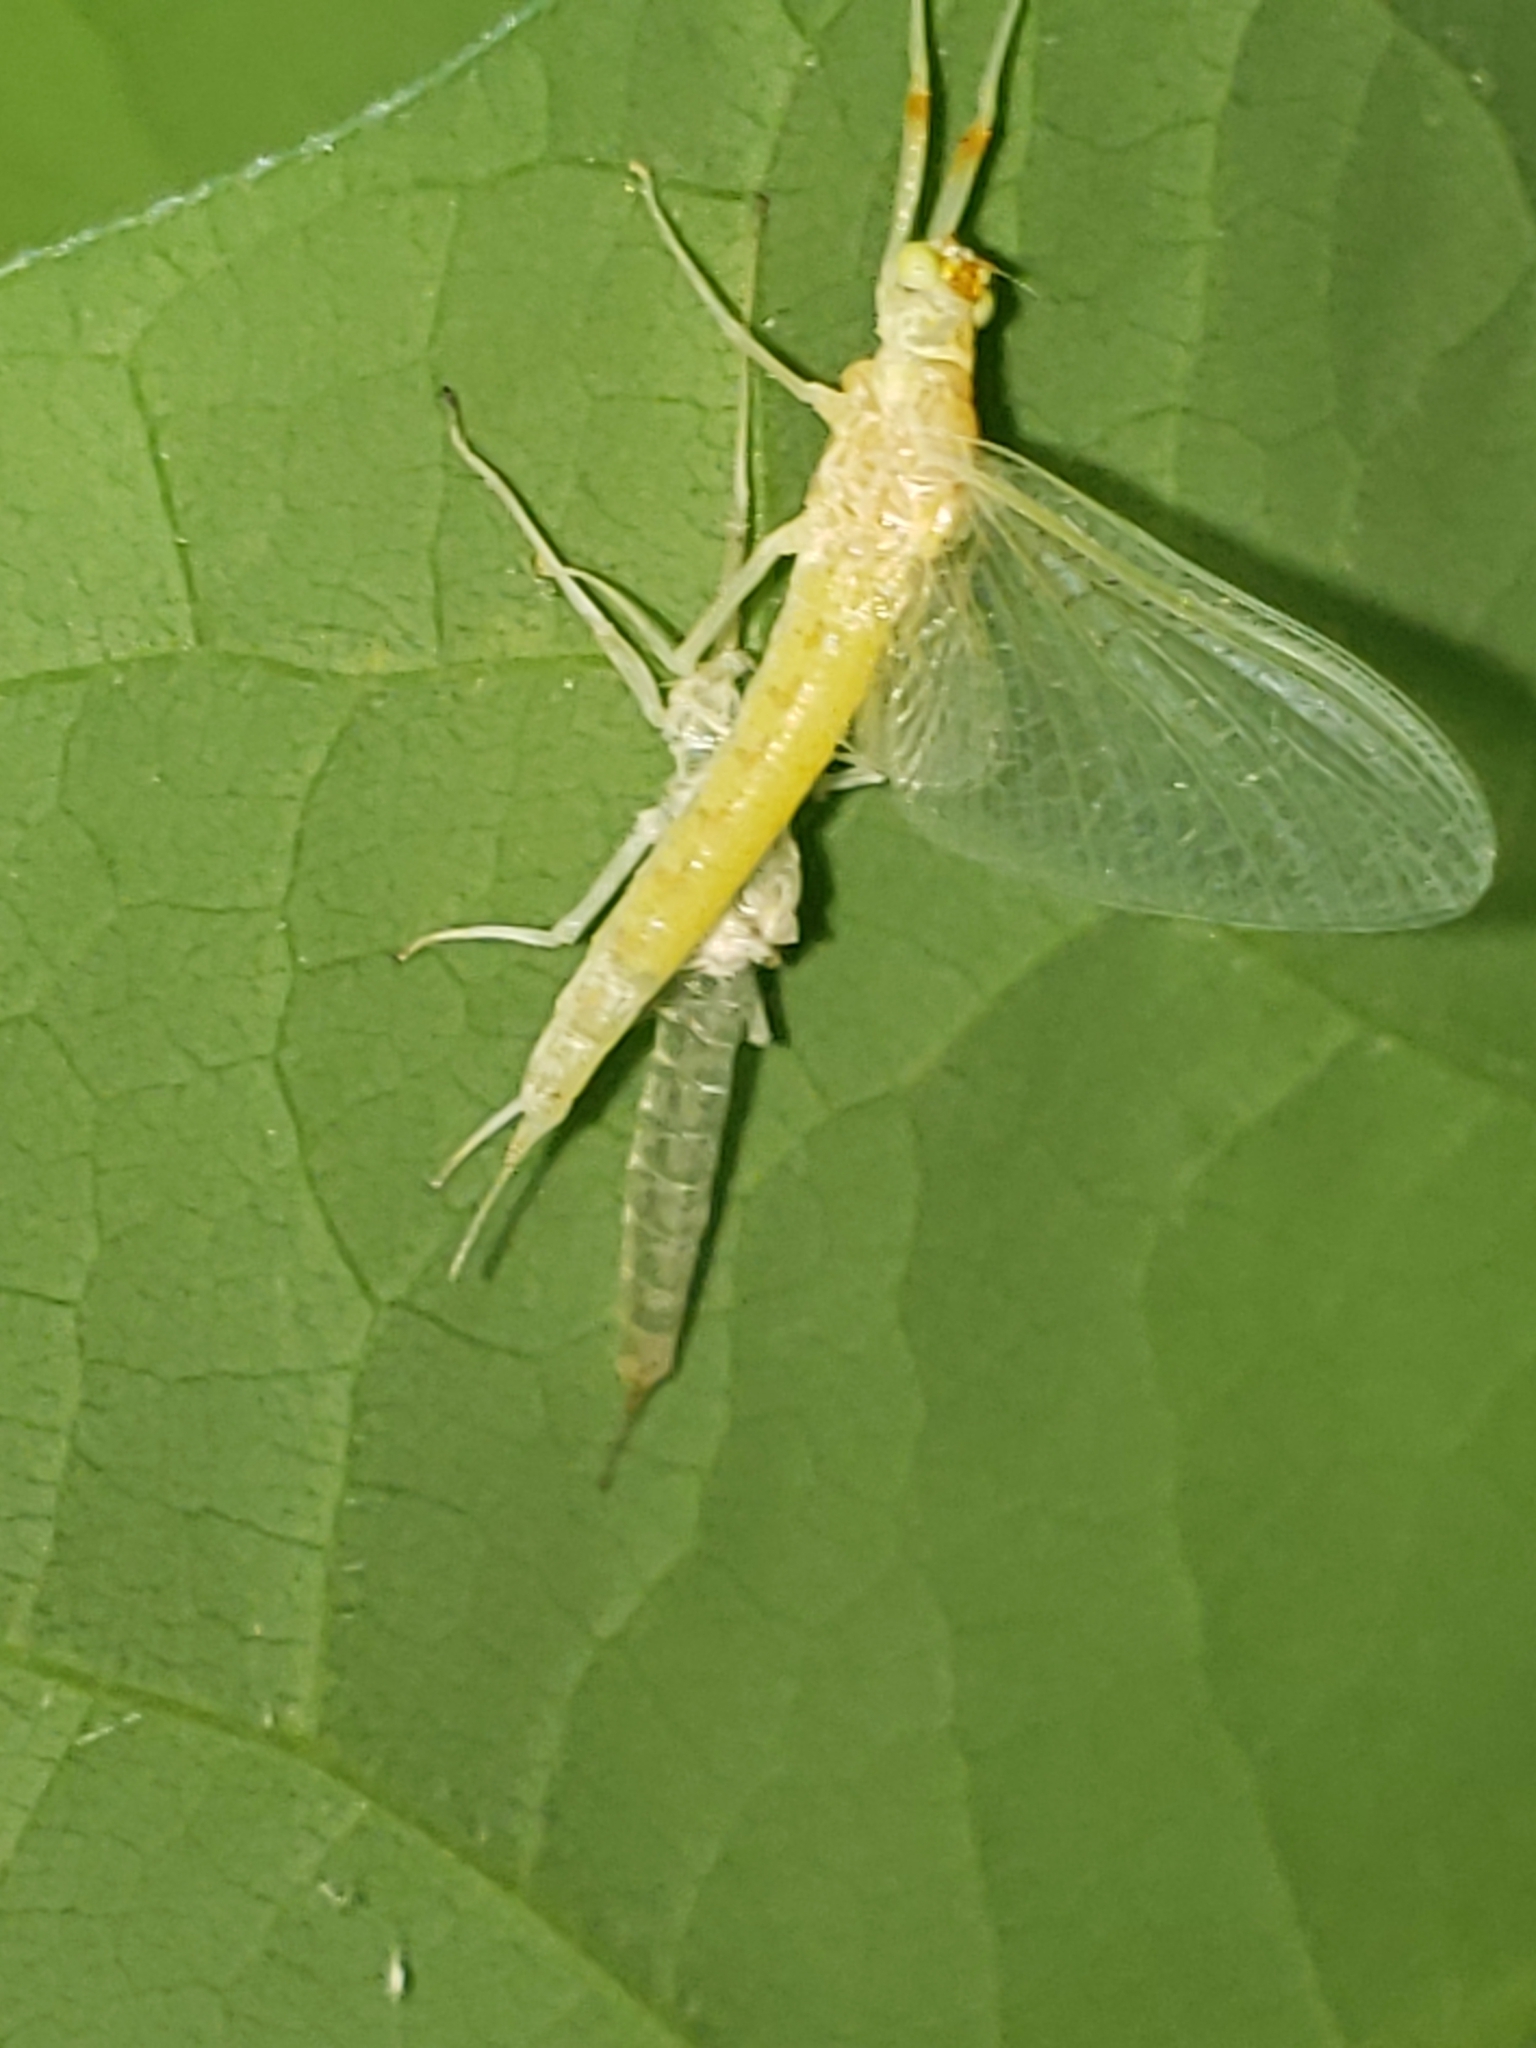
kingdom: Animalia
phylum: Arthropoda
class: Insecta
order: Ephemeroptera
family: Potamanthidae
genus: Anthopotamus
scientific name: Anthopotamus neglectus
